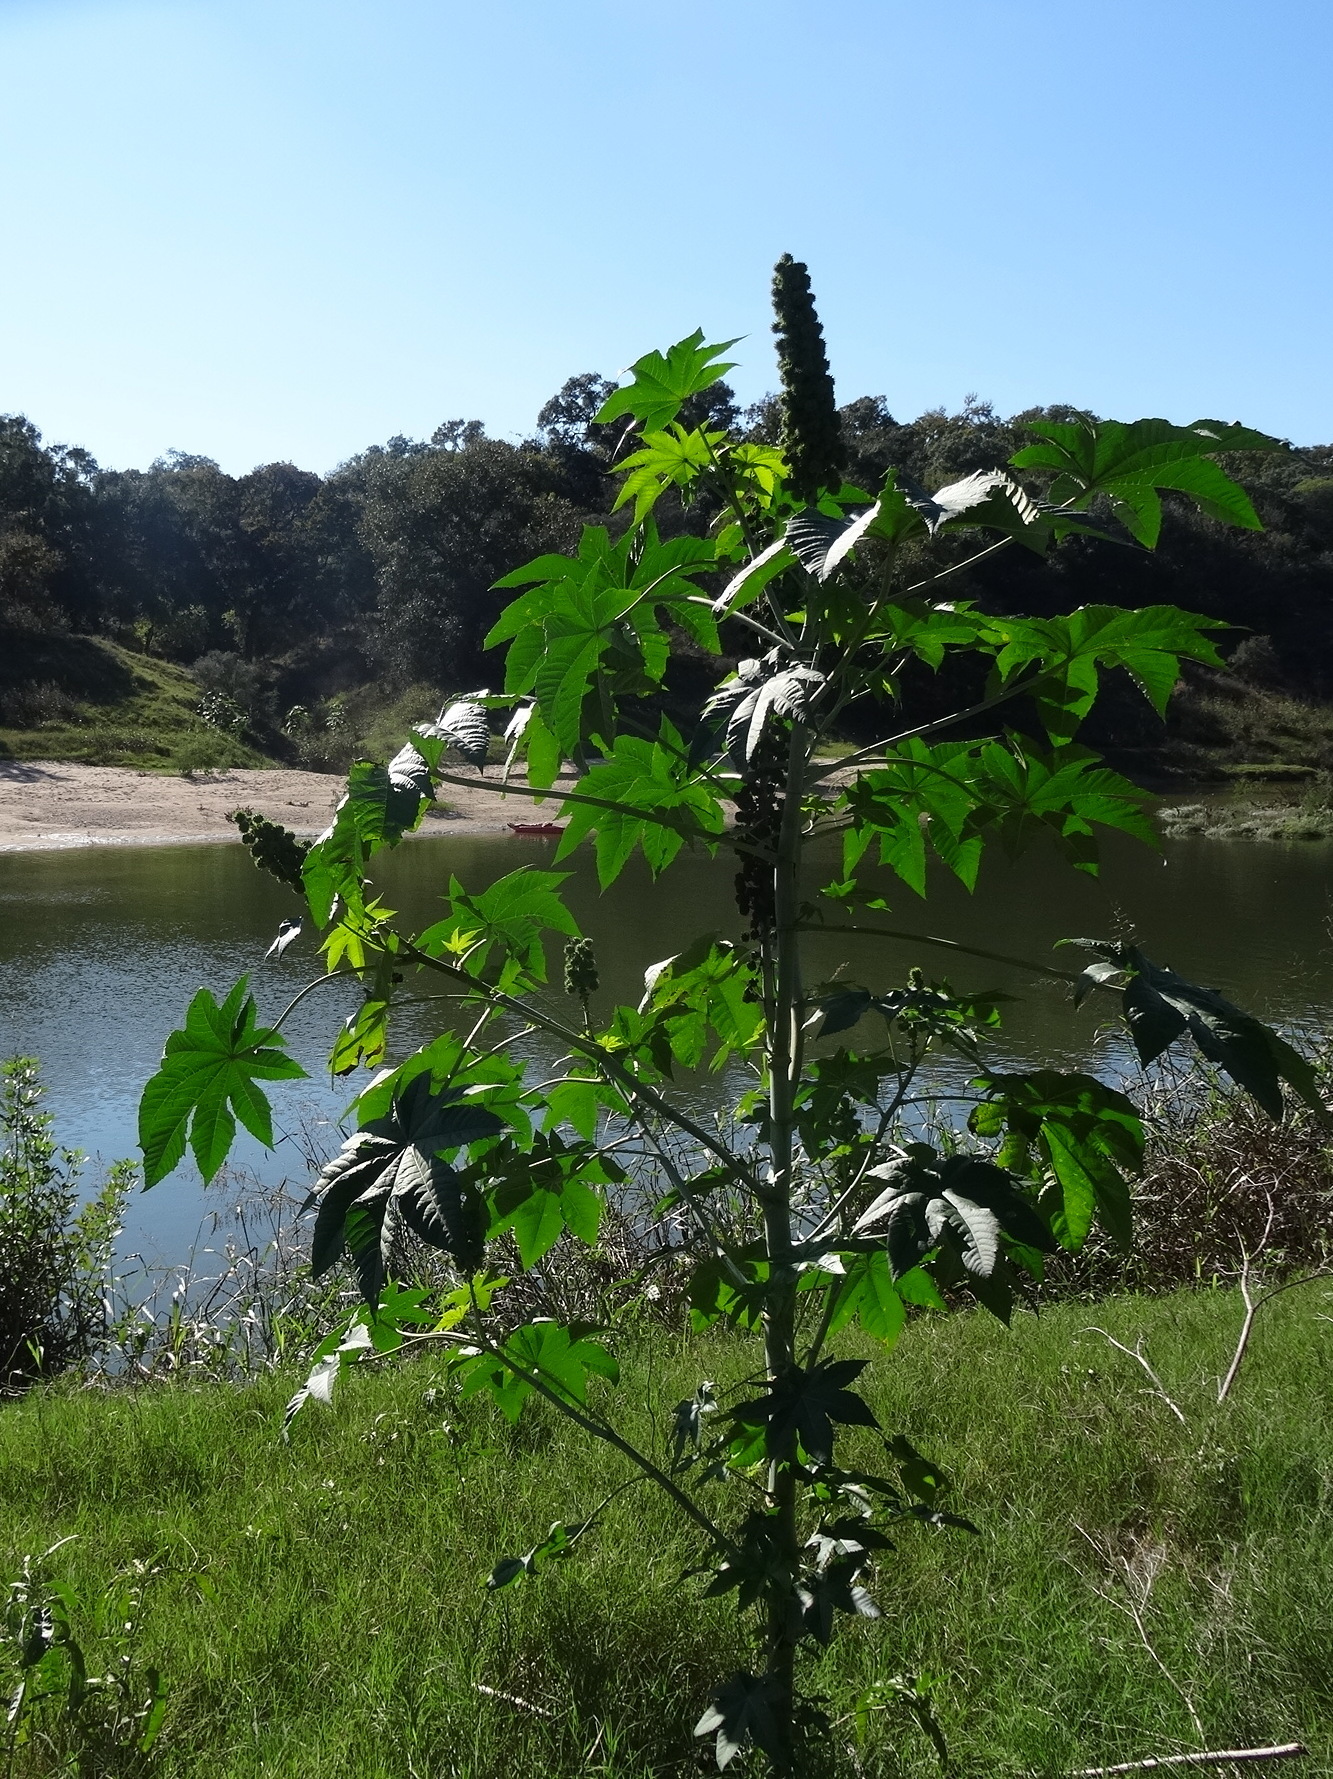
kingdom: Plantae
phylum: Tracheophyta
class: Magnoliopsida
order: Malpighiales
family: Euphorbiaceae
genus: Ricinus
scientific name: Ricinus communis
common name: Castor-oil-plant
